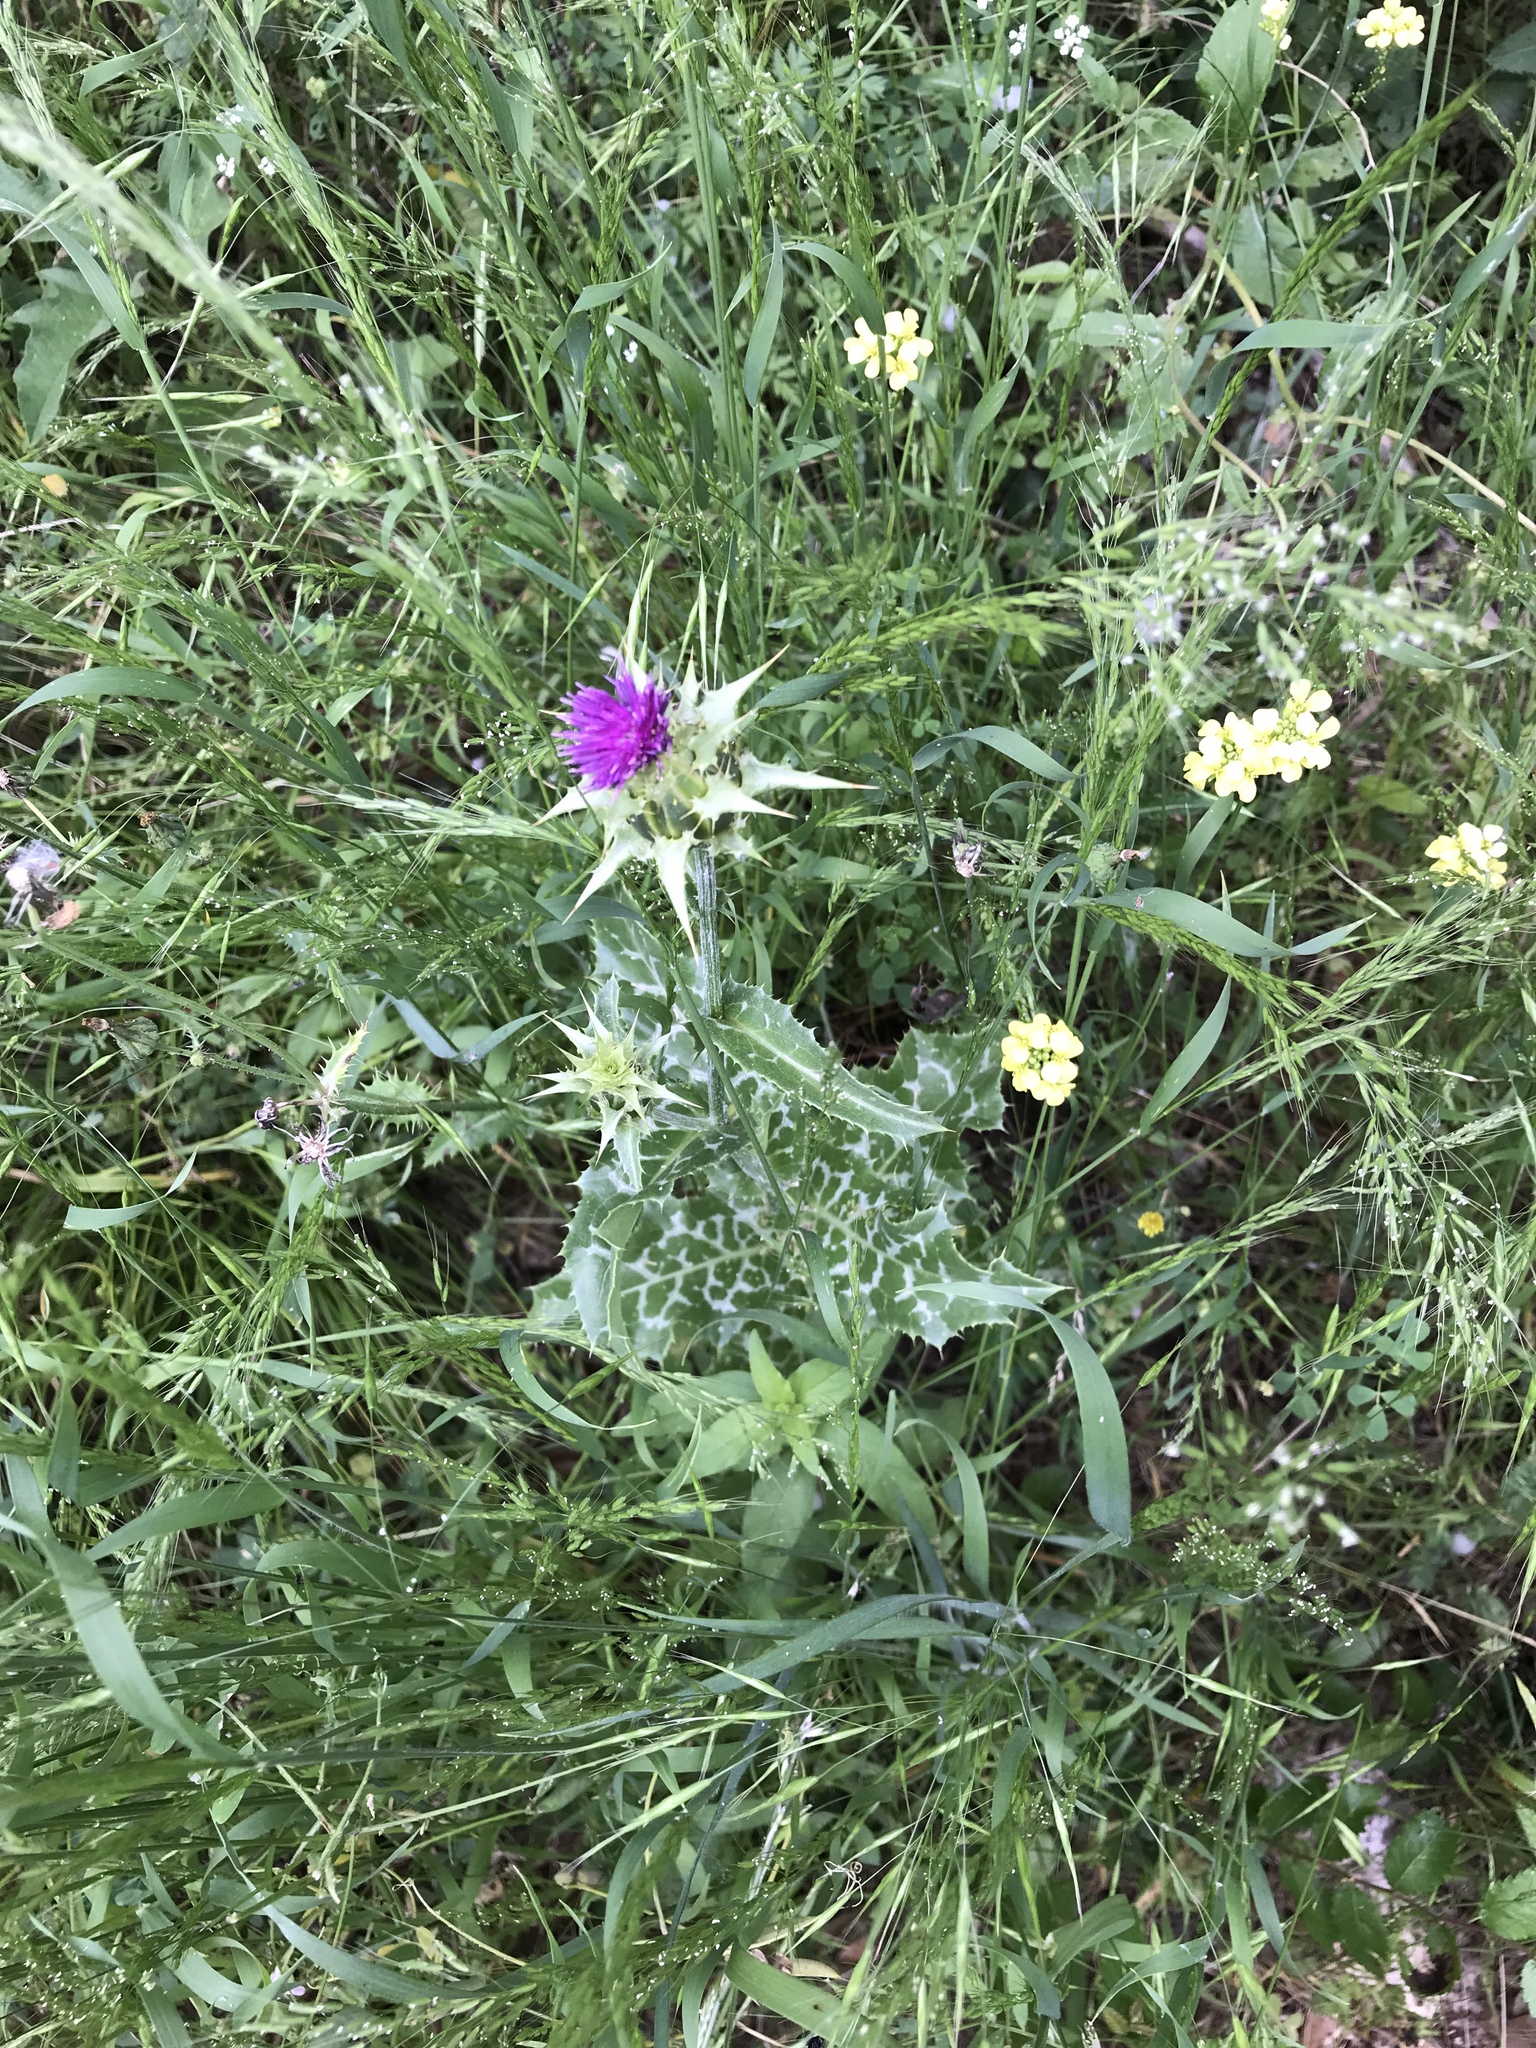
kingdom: Plantae
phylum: Tracheophyta
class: Magnoliopsida
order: Asterales
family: Asteraceae
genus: Silybum
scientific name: Silybum marianum
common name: Milk thistle
